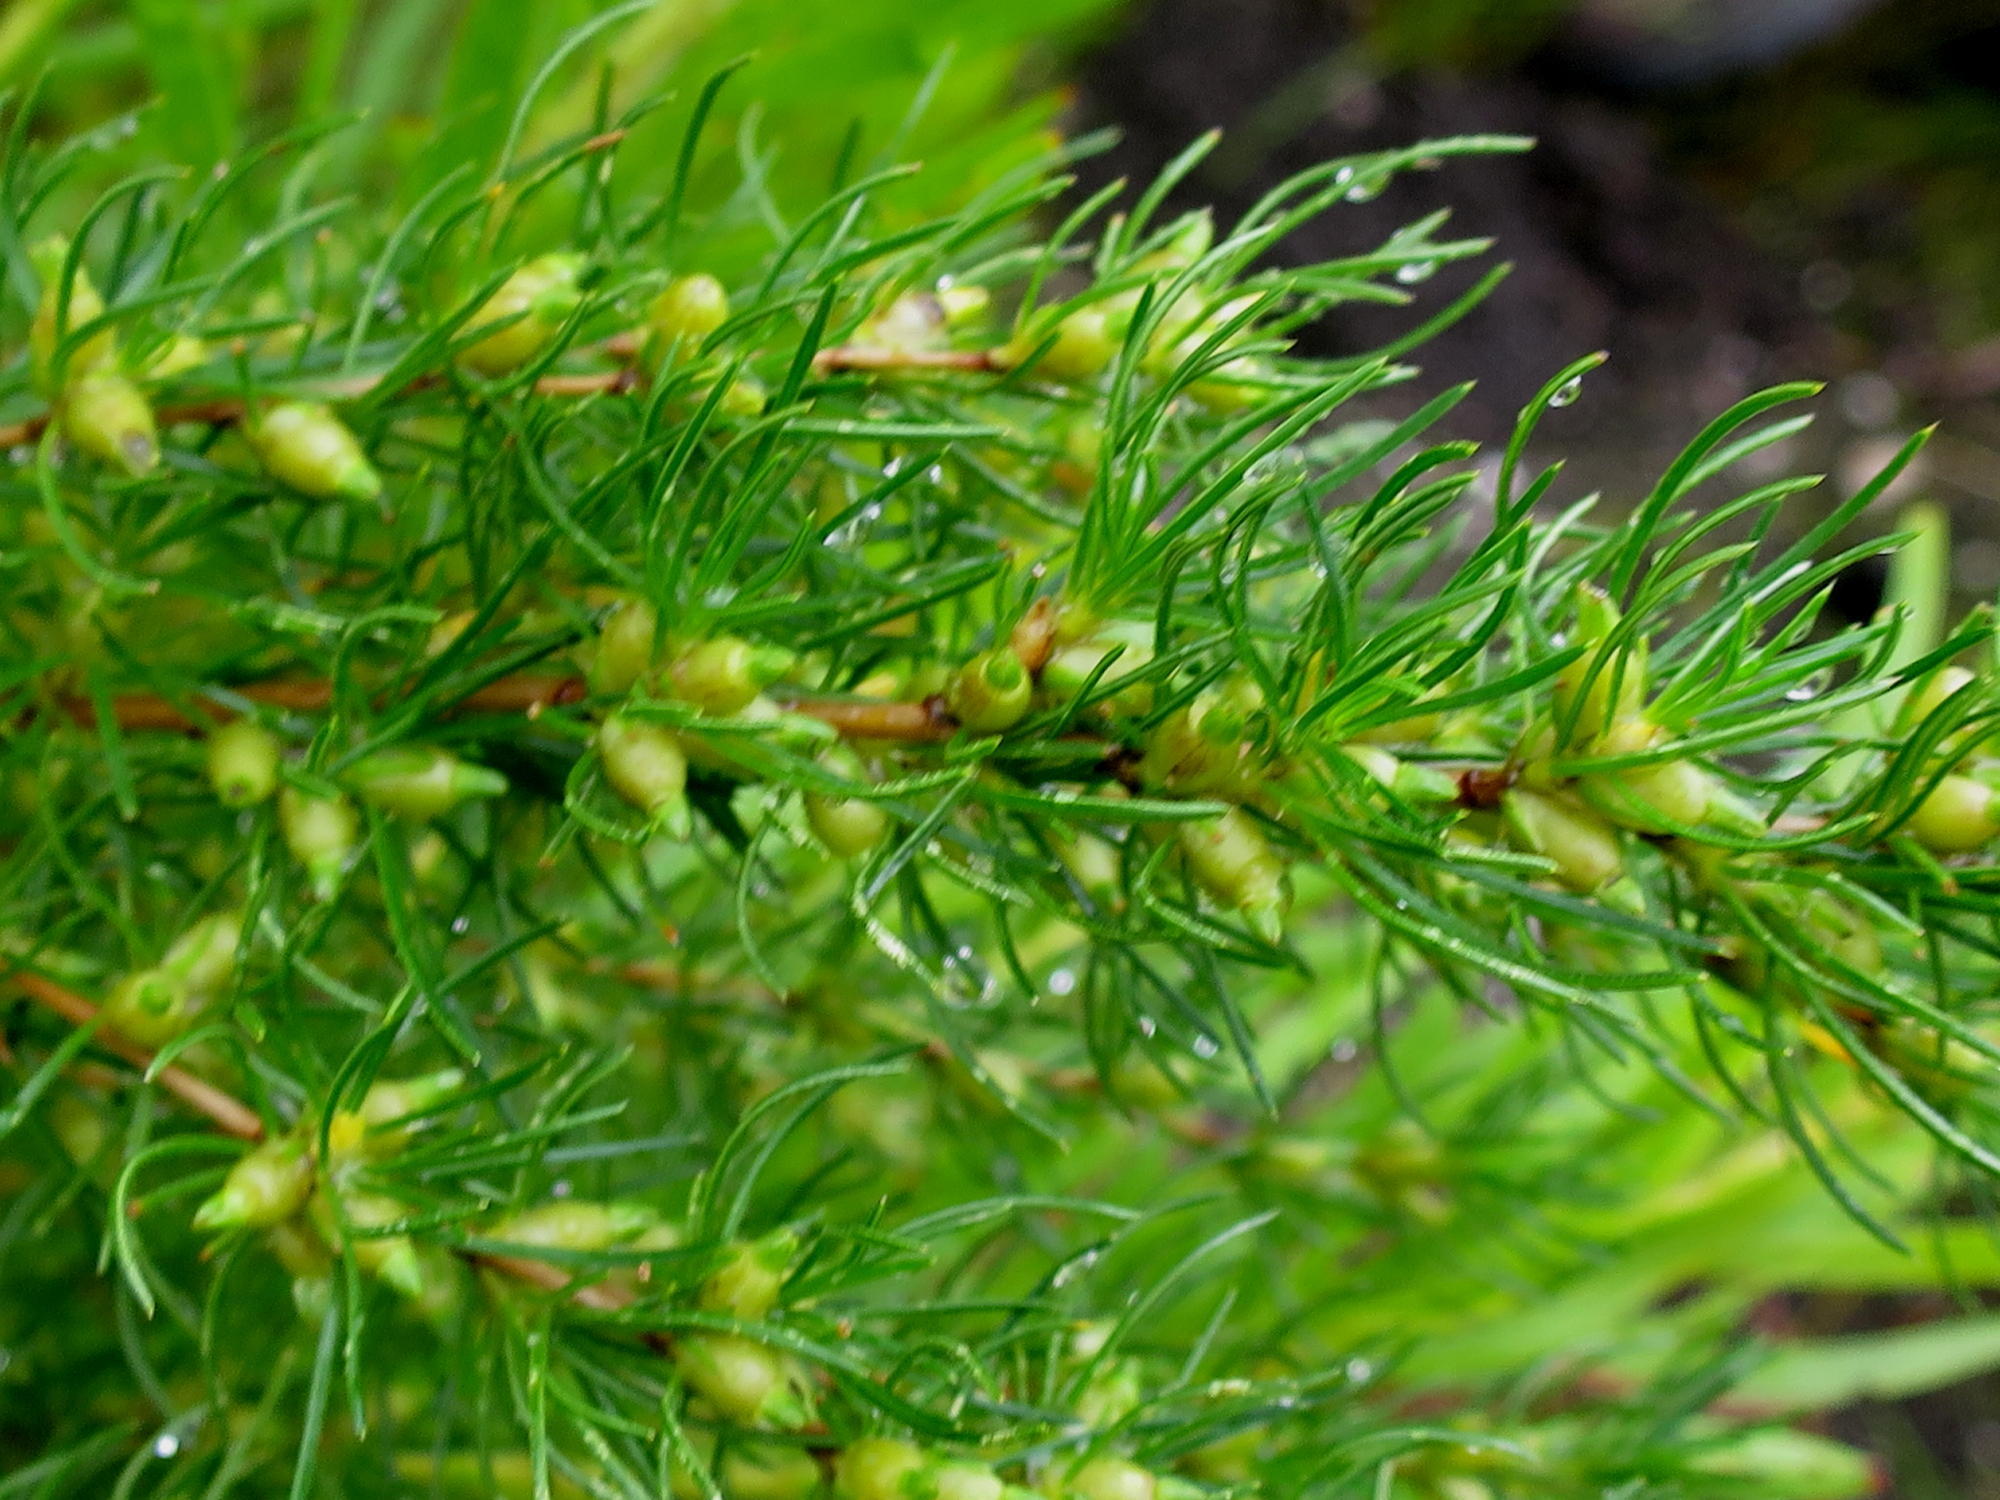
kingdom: Plantae
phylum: Tracheophyta
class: Magnoliopsida
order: Rosales
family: Rosaceae
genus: Cliffortia
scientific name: Cliffortia burchellii
